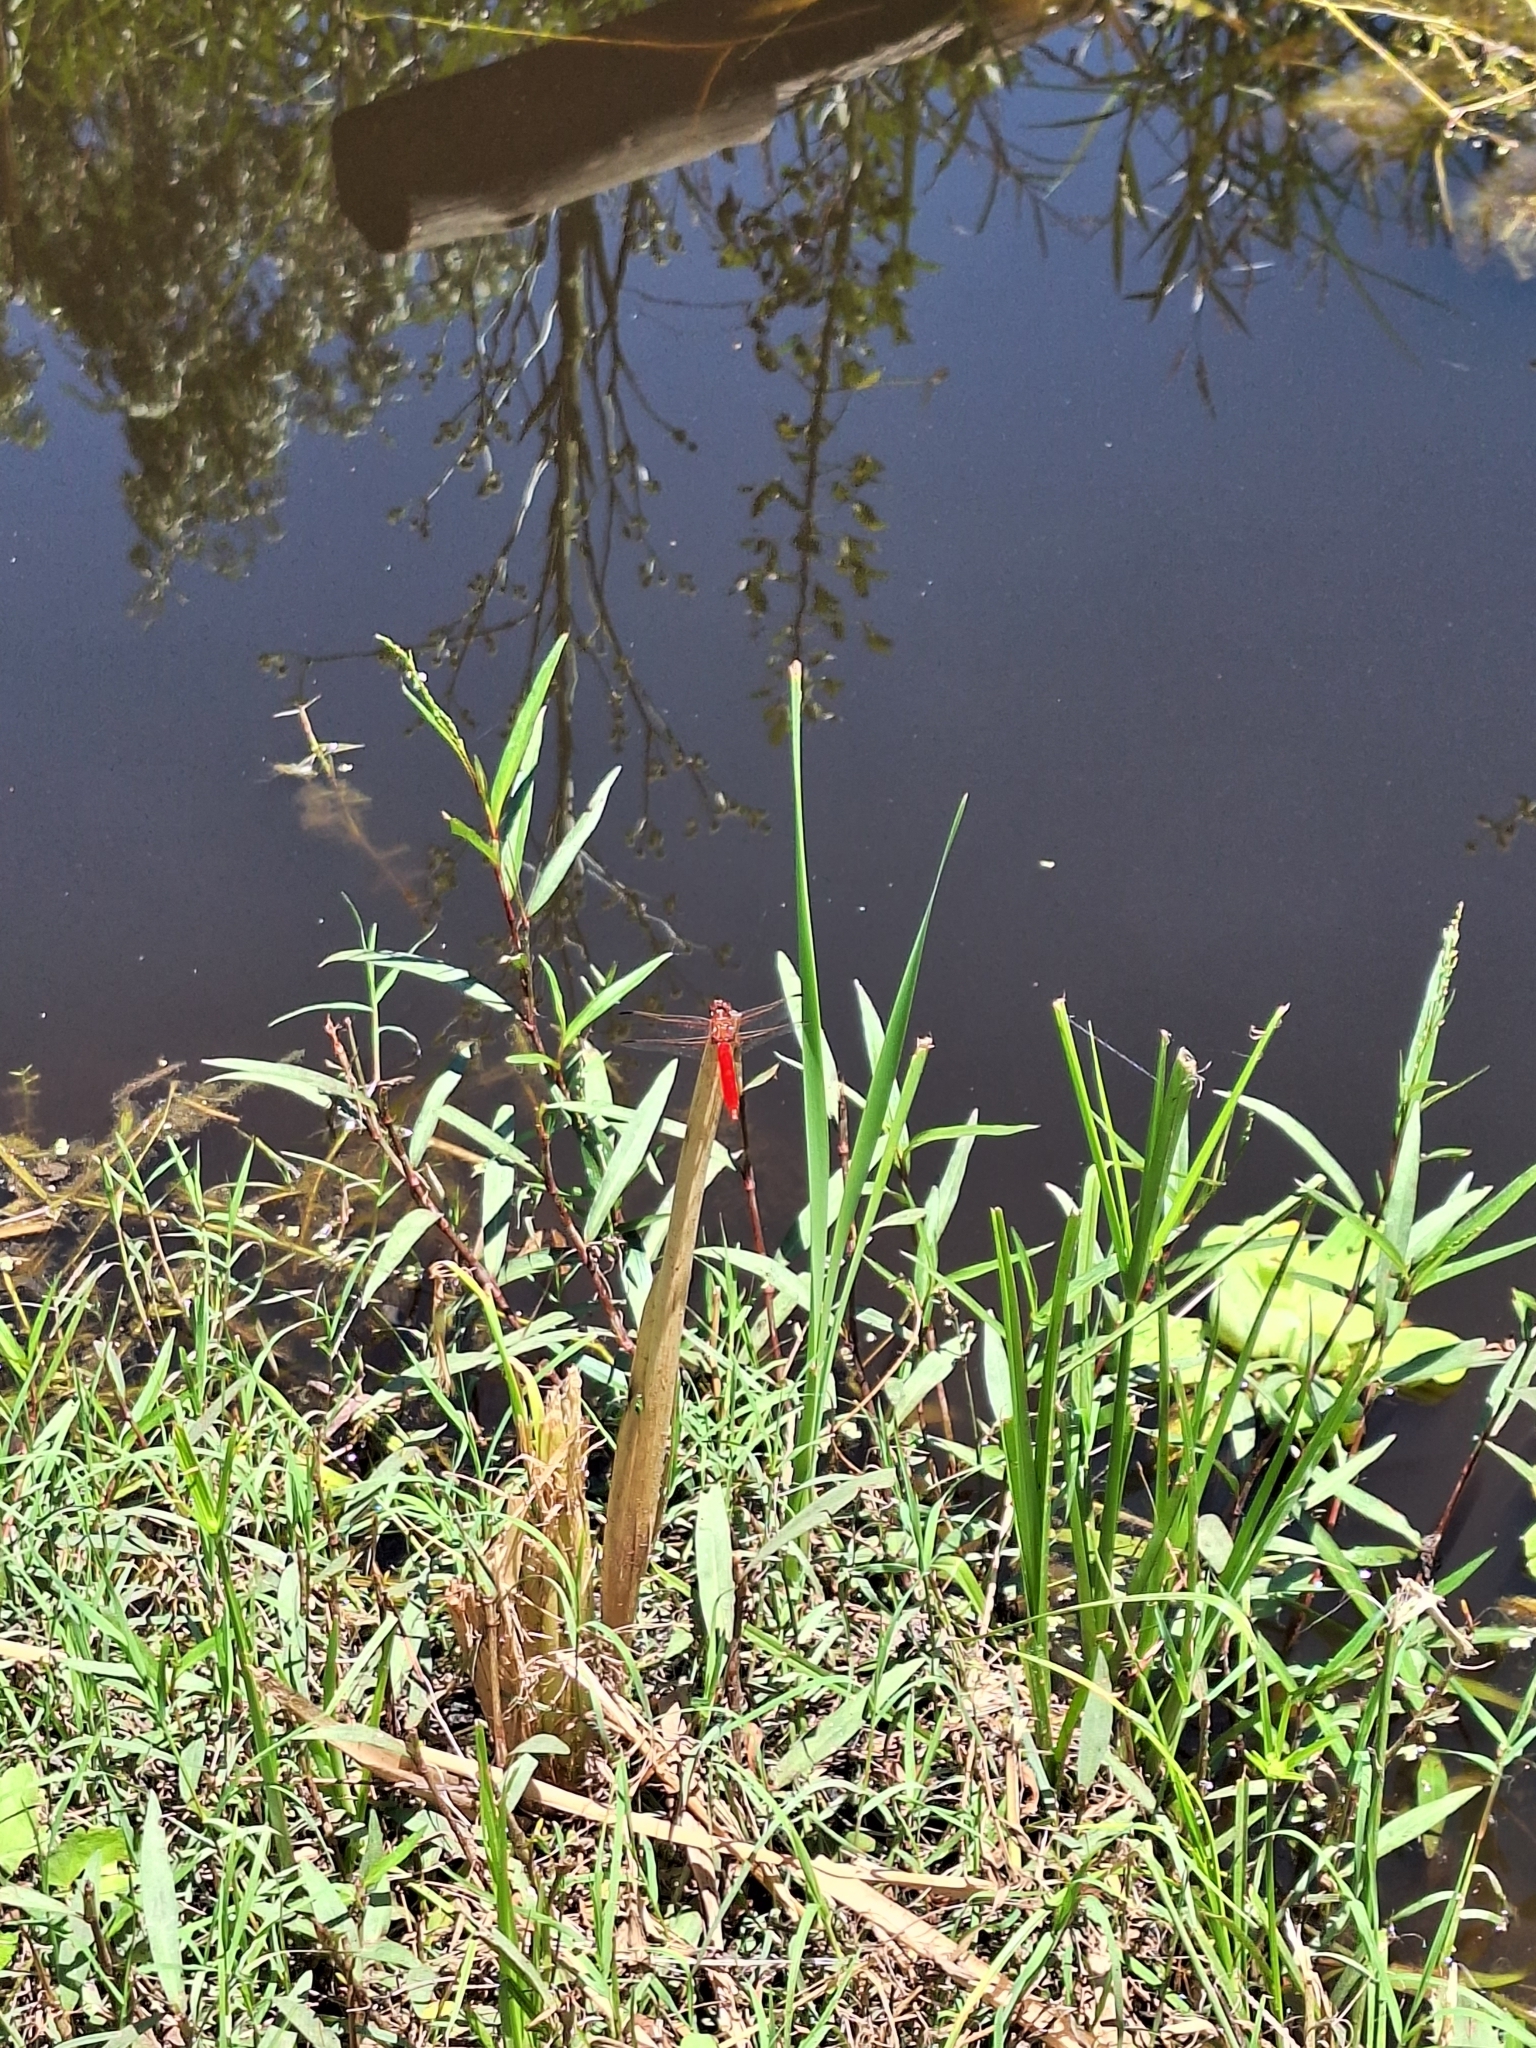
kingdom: Animalia
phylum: Arthropoda
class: Insecta
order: Odonata
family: Libellulidae
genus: Orthemis
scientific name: Orthemis nodiplaga
